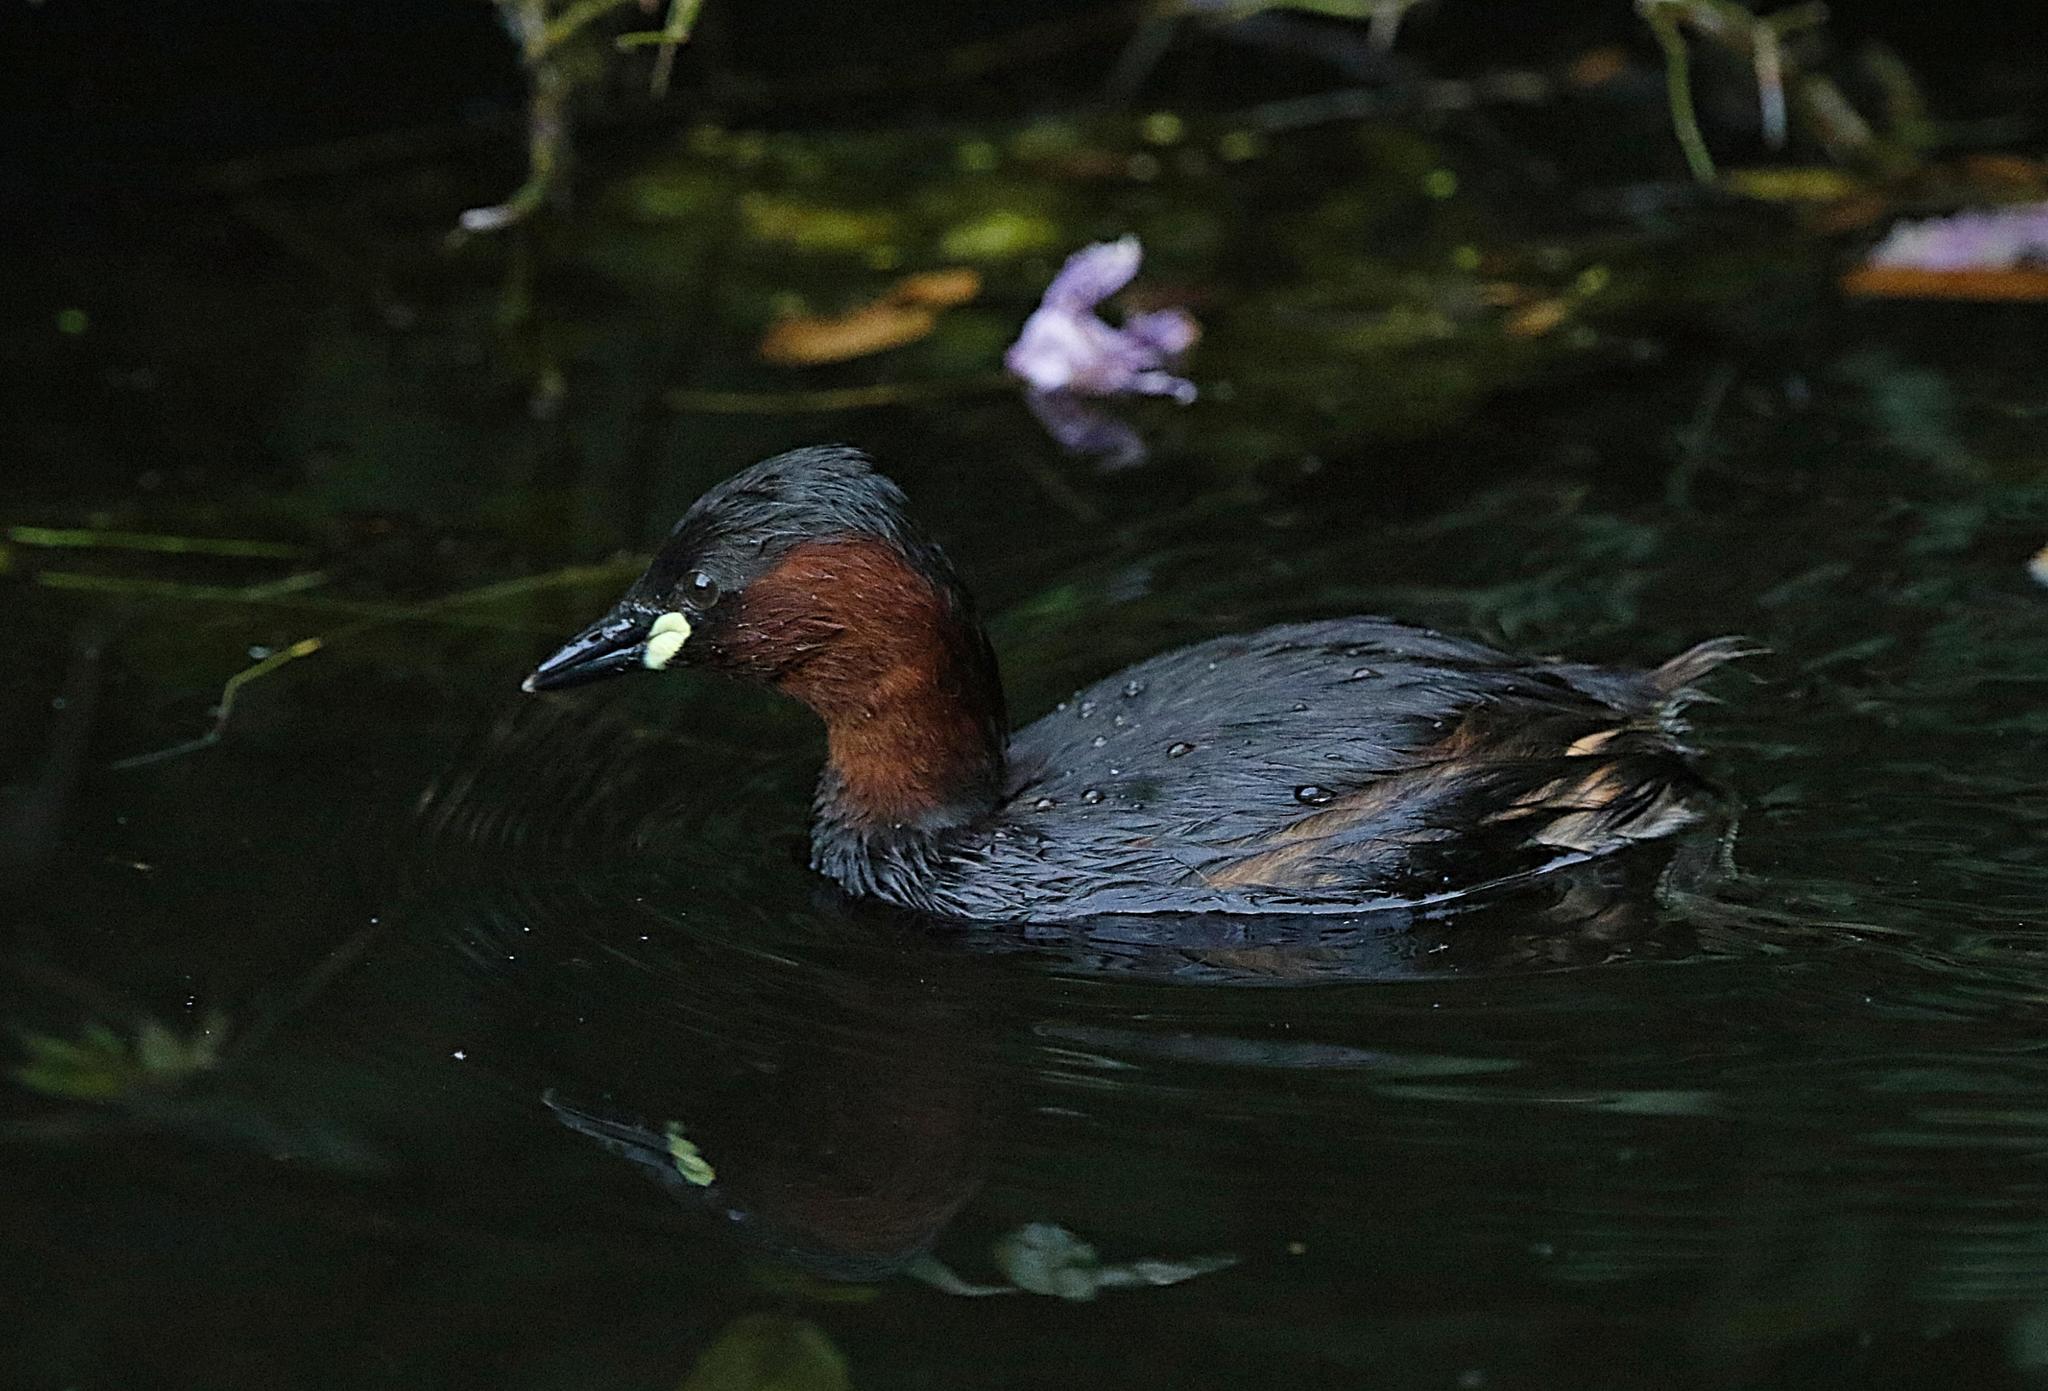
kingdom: Animalia
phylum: Chordata
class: Aves
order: Podicipediformes
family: Podicipedidae
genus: Tachybaptus
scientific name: Tachybaptus ruficollis
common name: Little grebe
